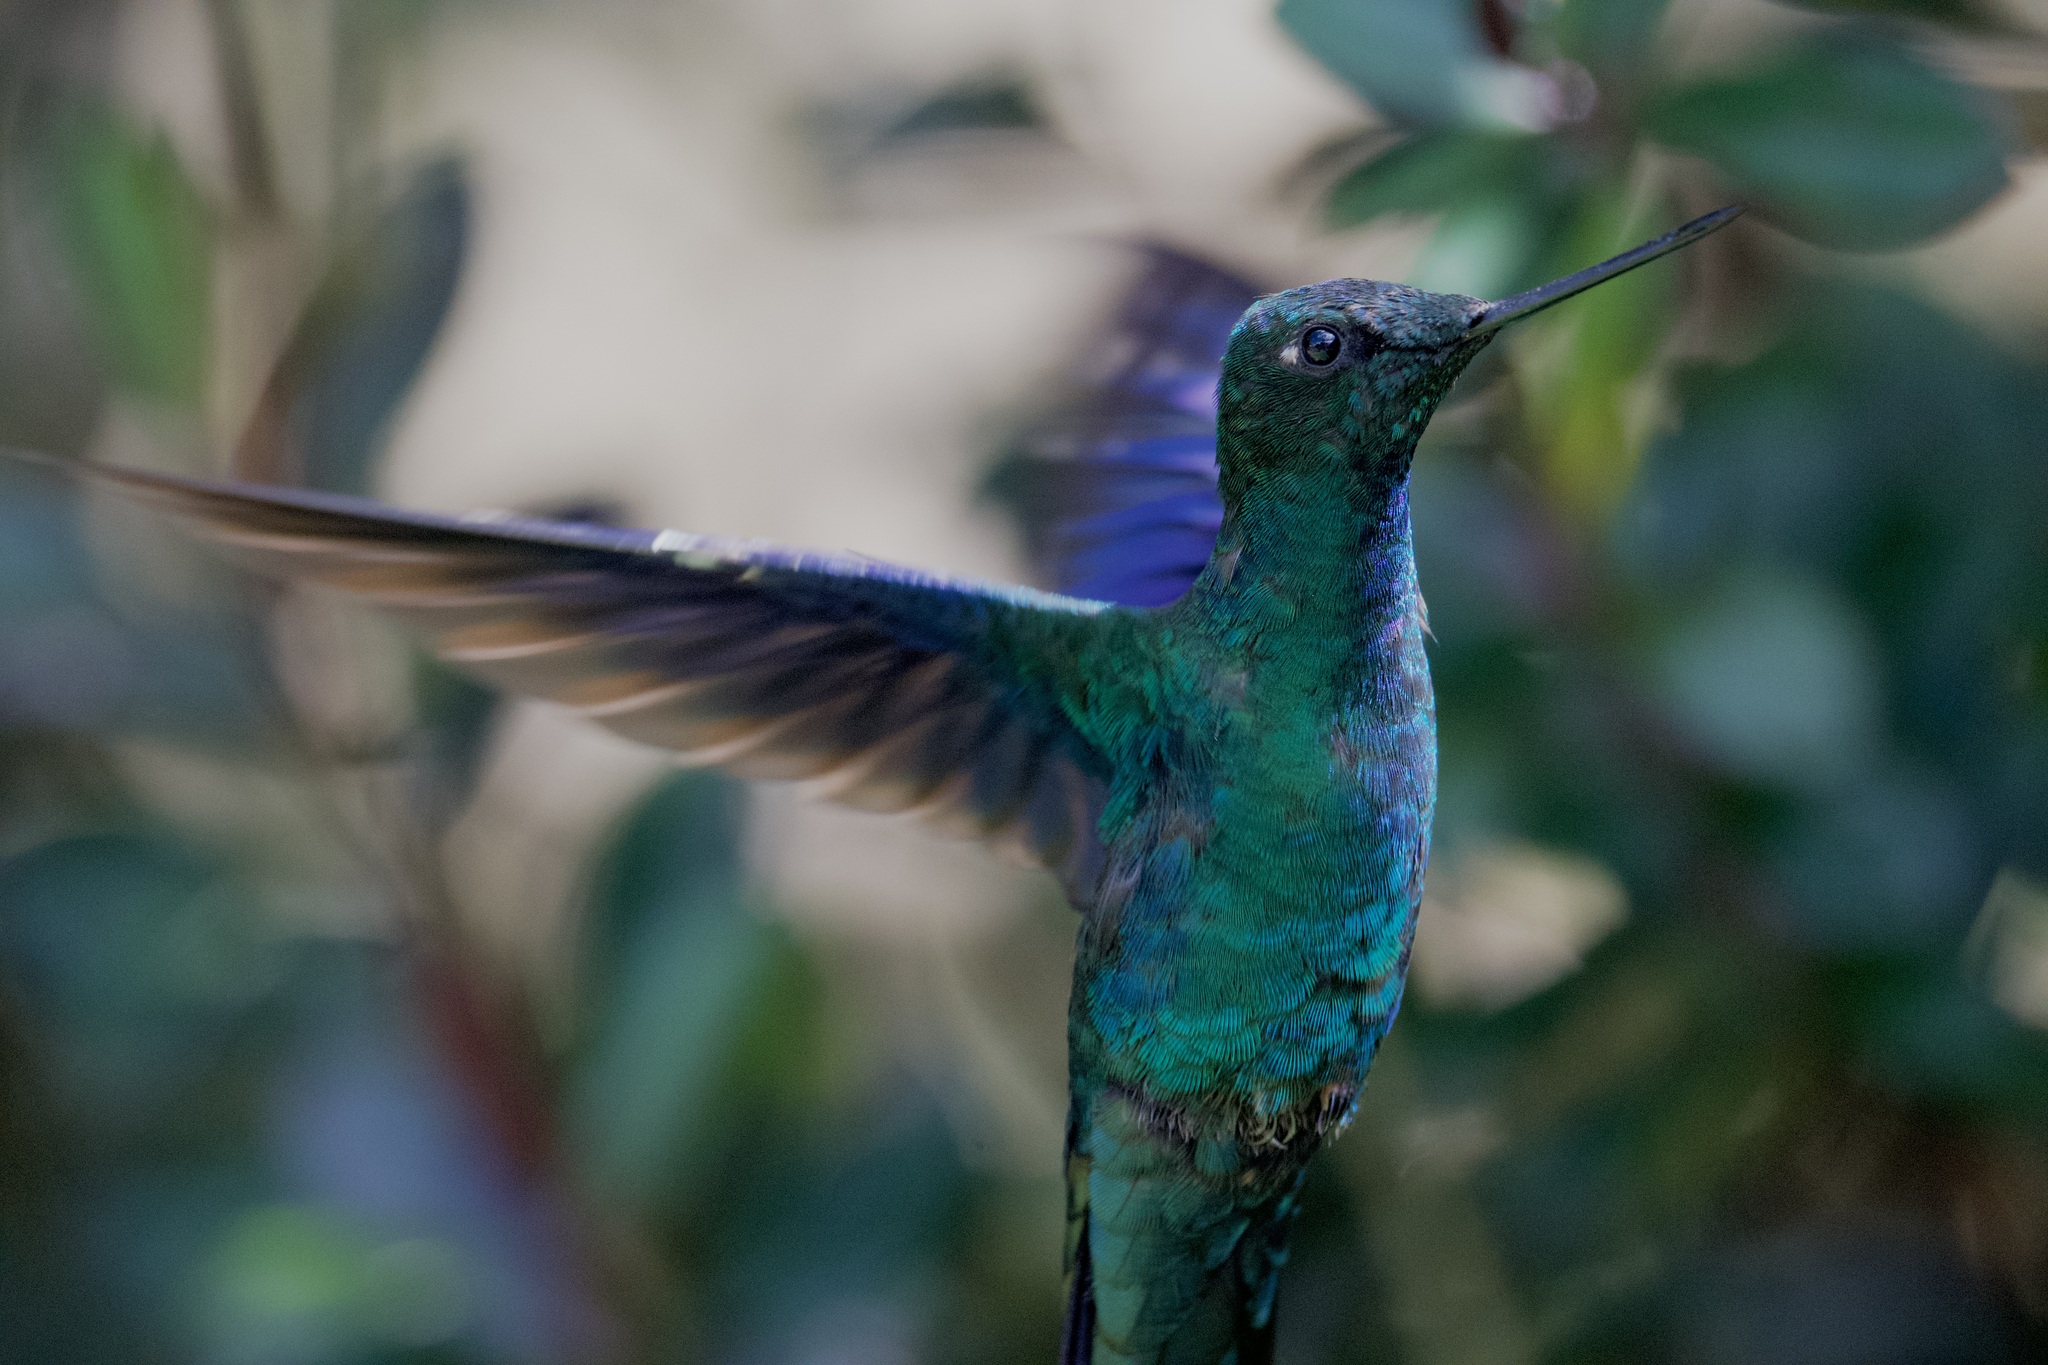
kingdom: Animalia
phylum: Chordata
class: Aves
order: Apodiformes
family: Trochilidae
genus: Pterophanes
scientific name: Pterophanes cyanopterus
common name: Great sapphirewing
